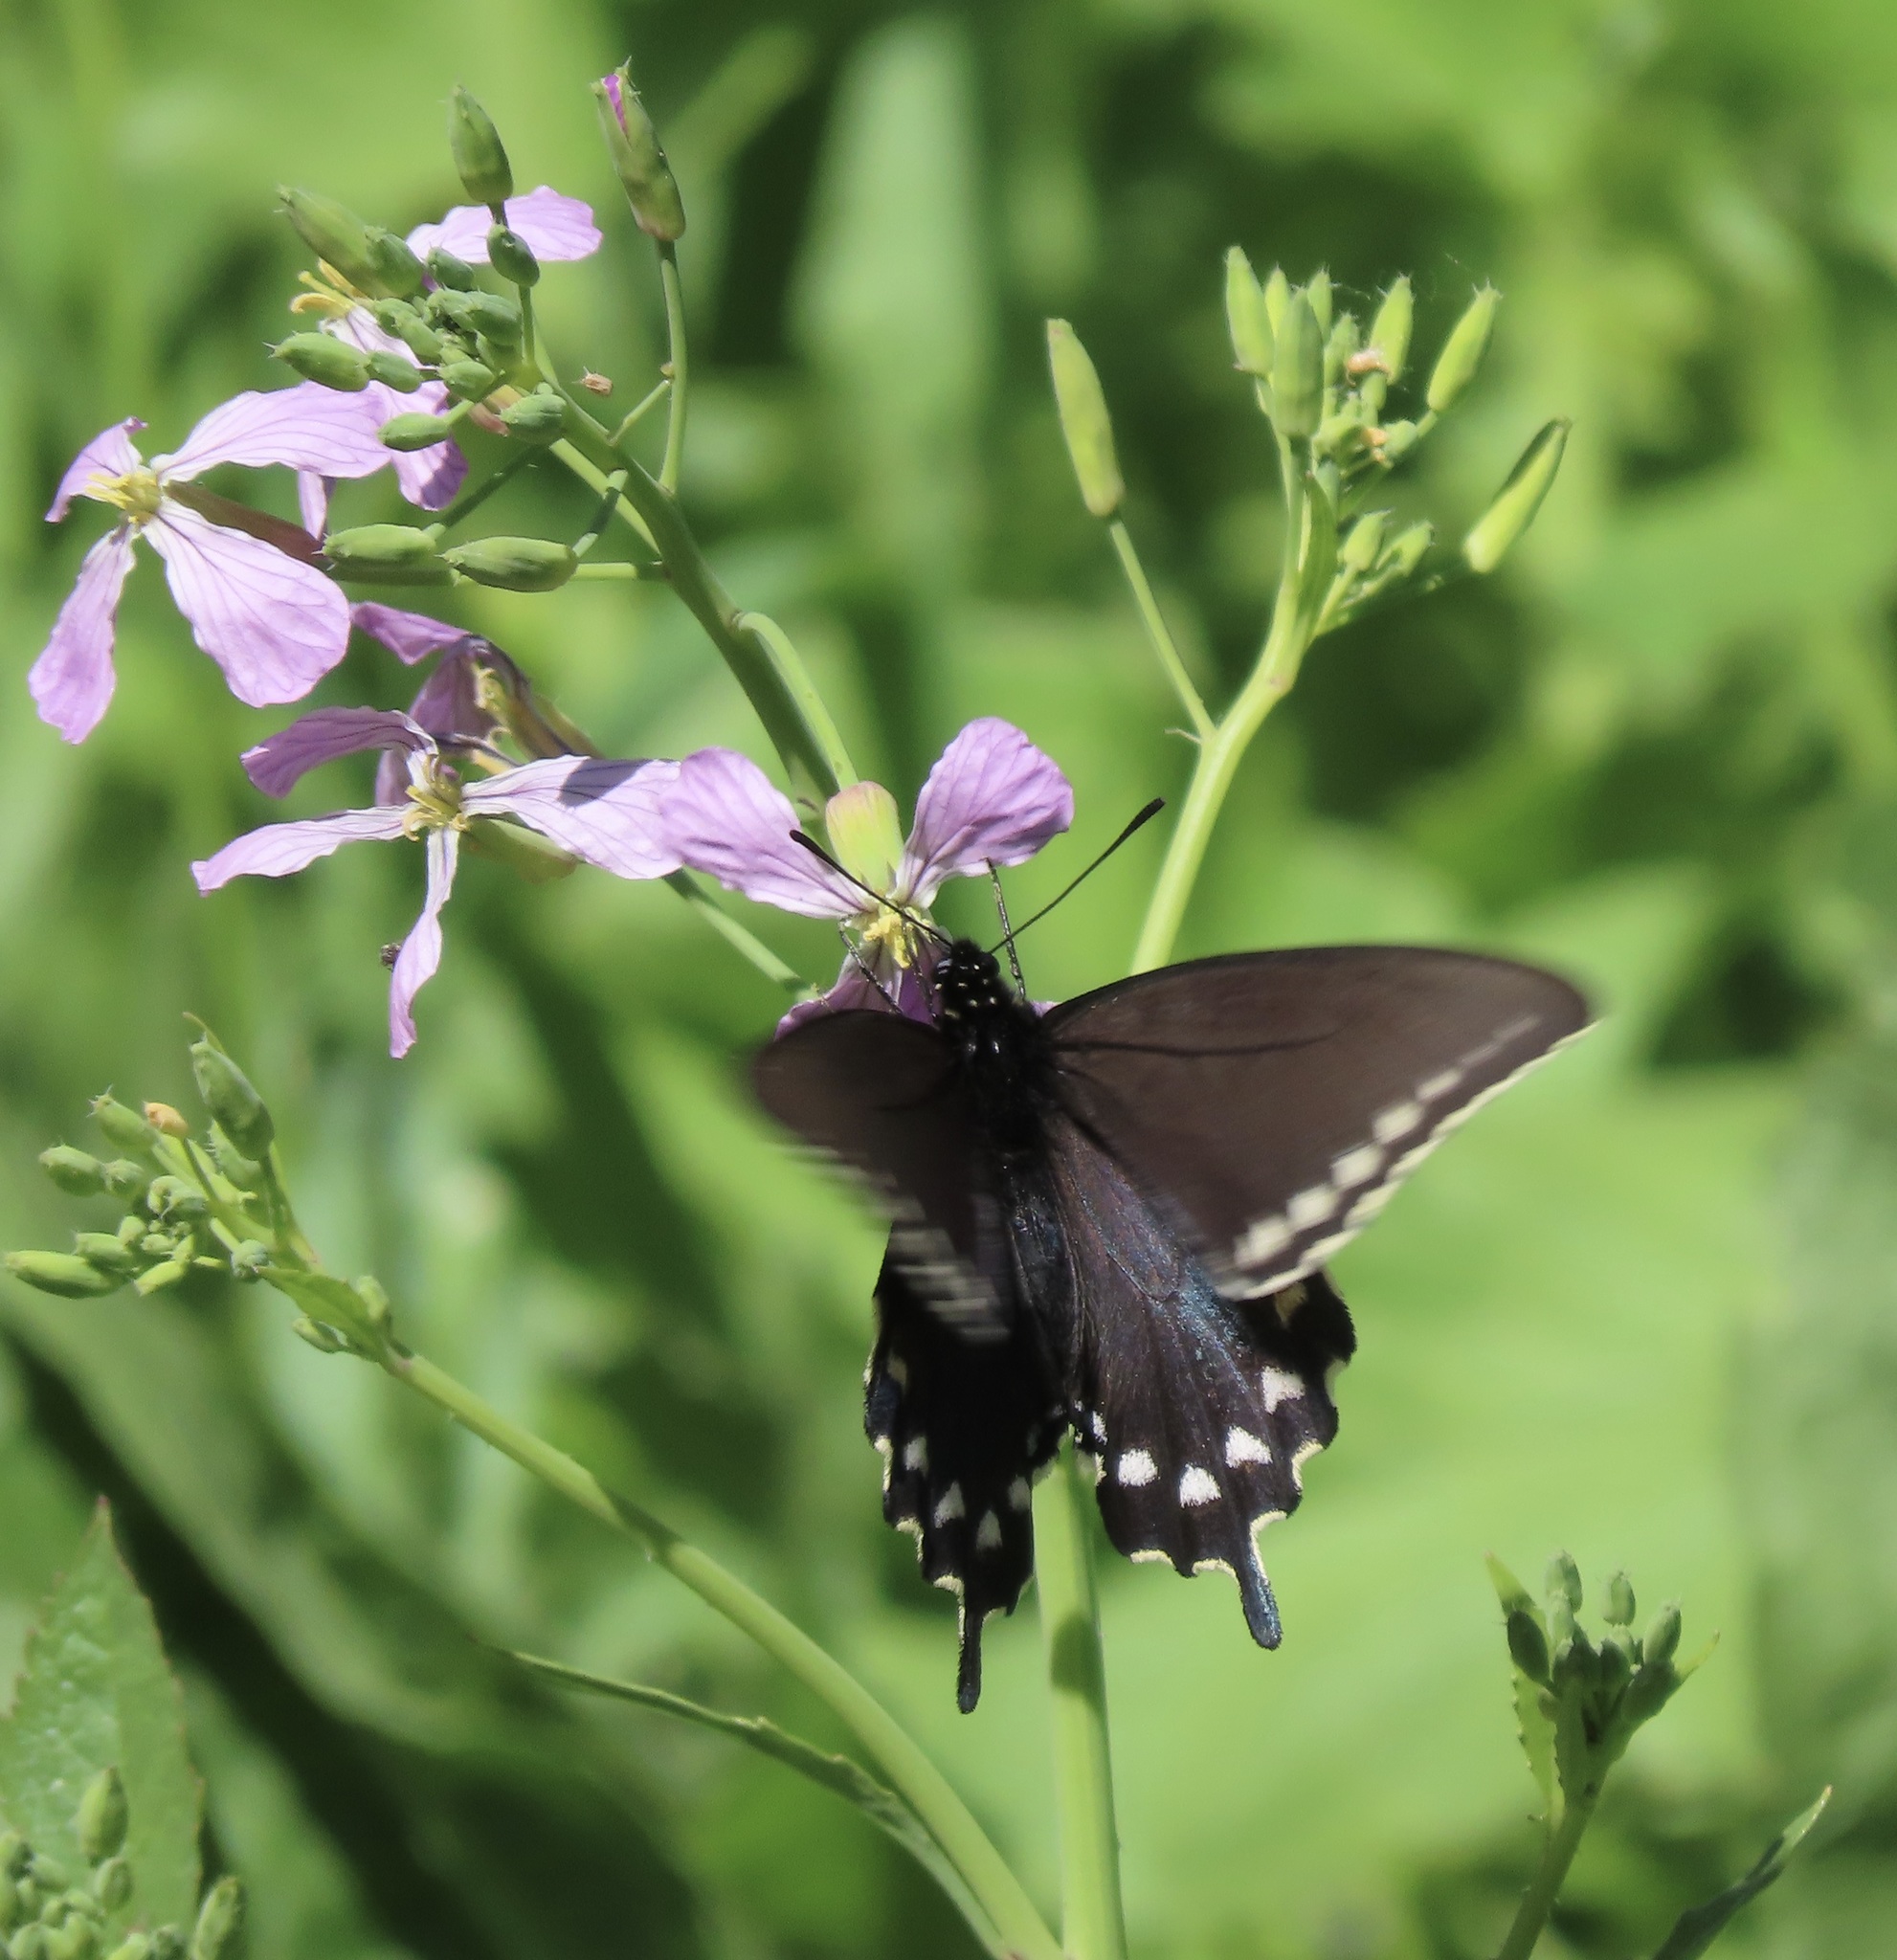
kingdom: Animalia
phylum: Arthropoda
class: Insecta
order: Lepidoptera
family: Papilionidae
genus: Battus
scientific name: Battus philenor
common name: Pipevine swallowtail
